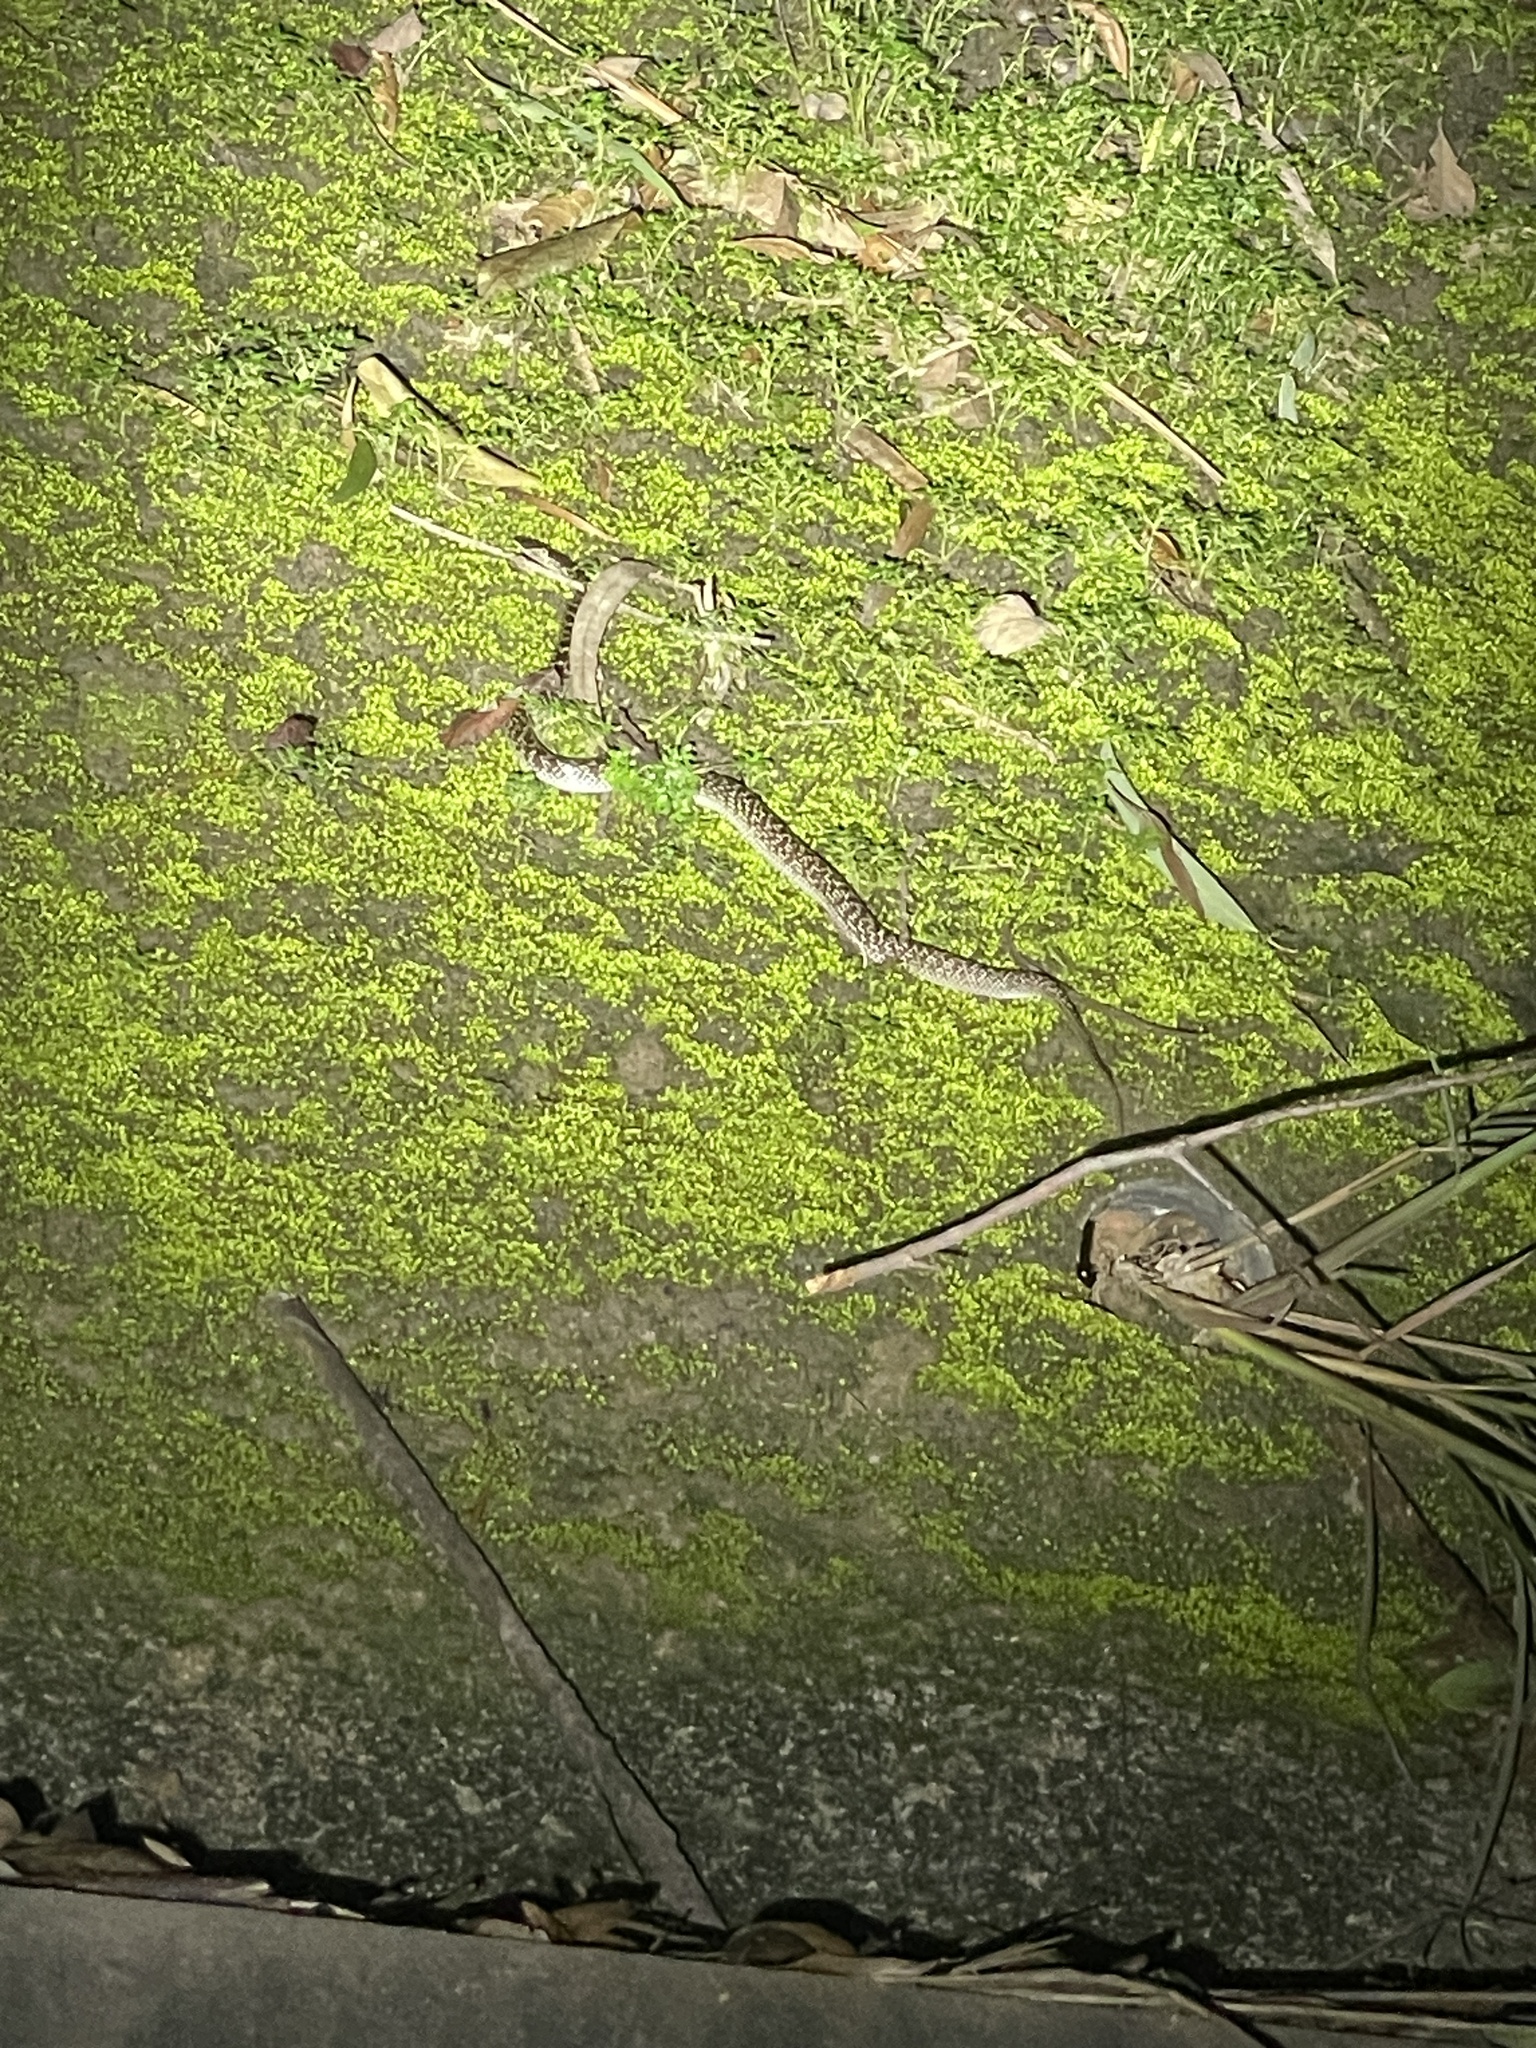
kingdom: Animalia
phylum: Chordata
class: Squamata
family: Colubridae
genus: Lycodon
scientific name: Lycodon capucinus
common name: Common wold snake/house snake
